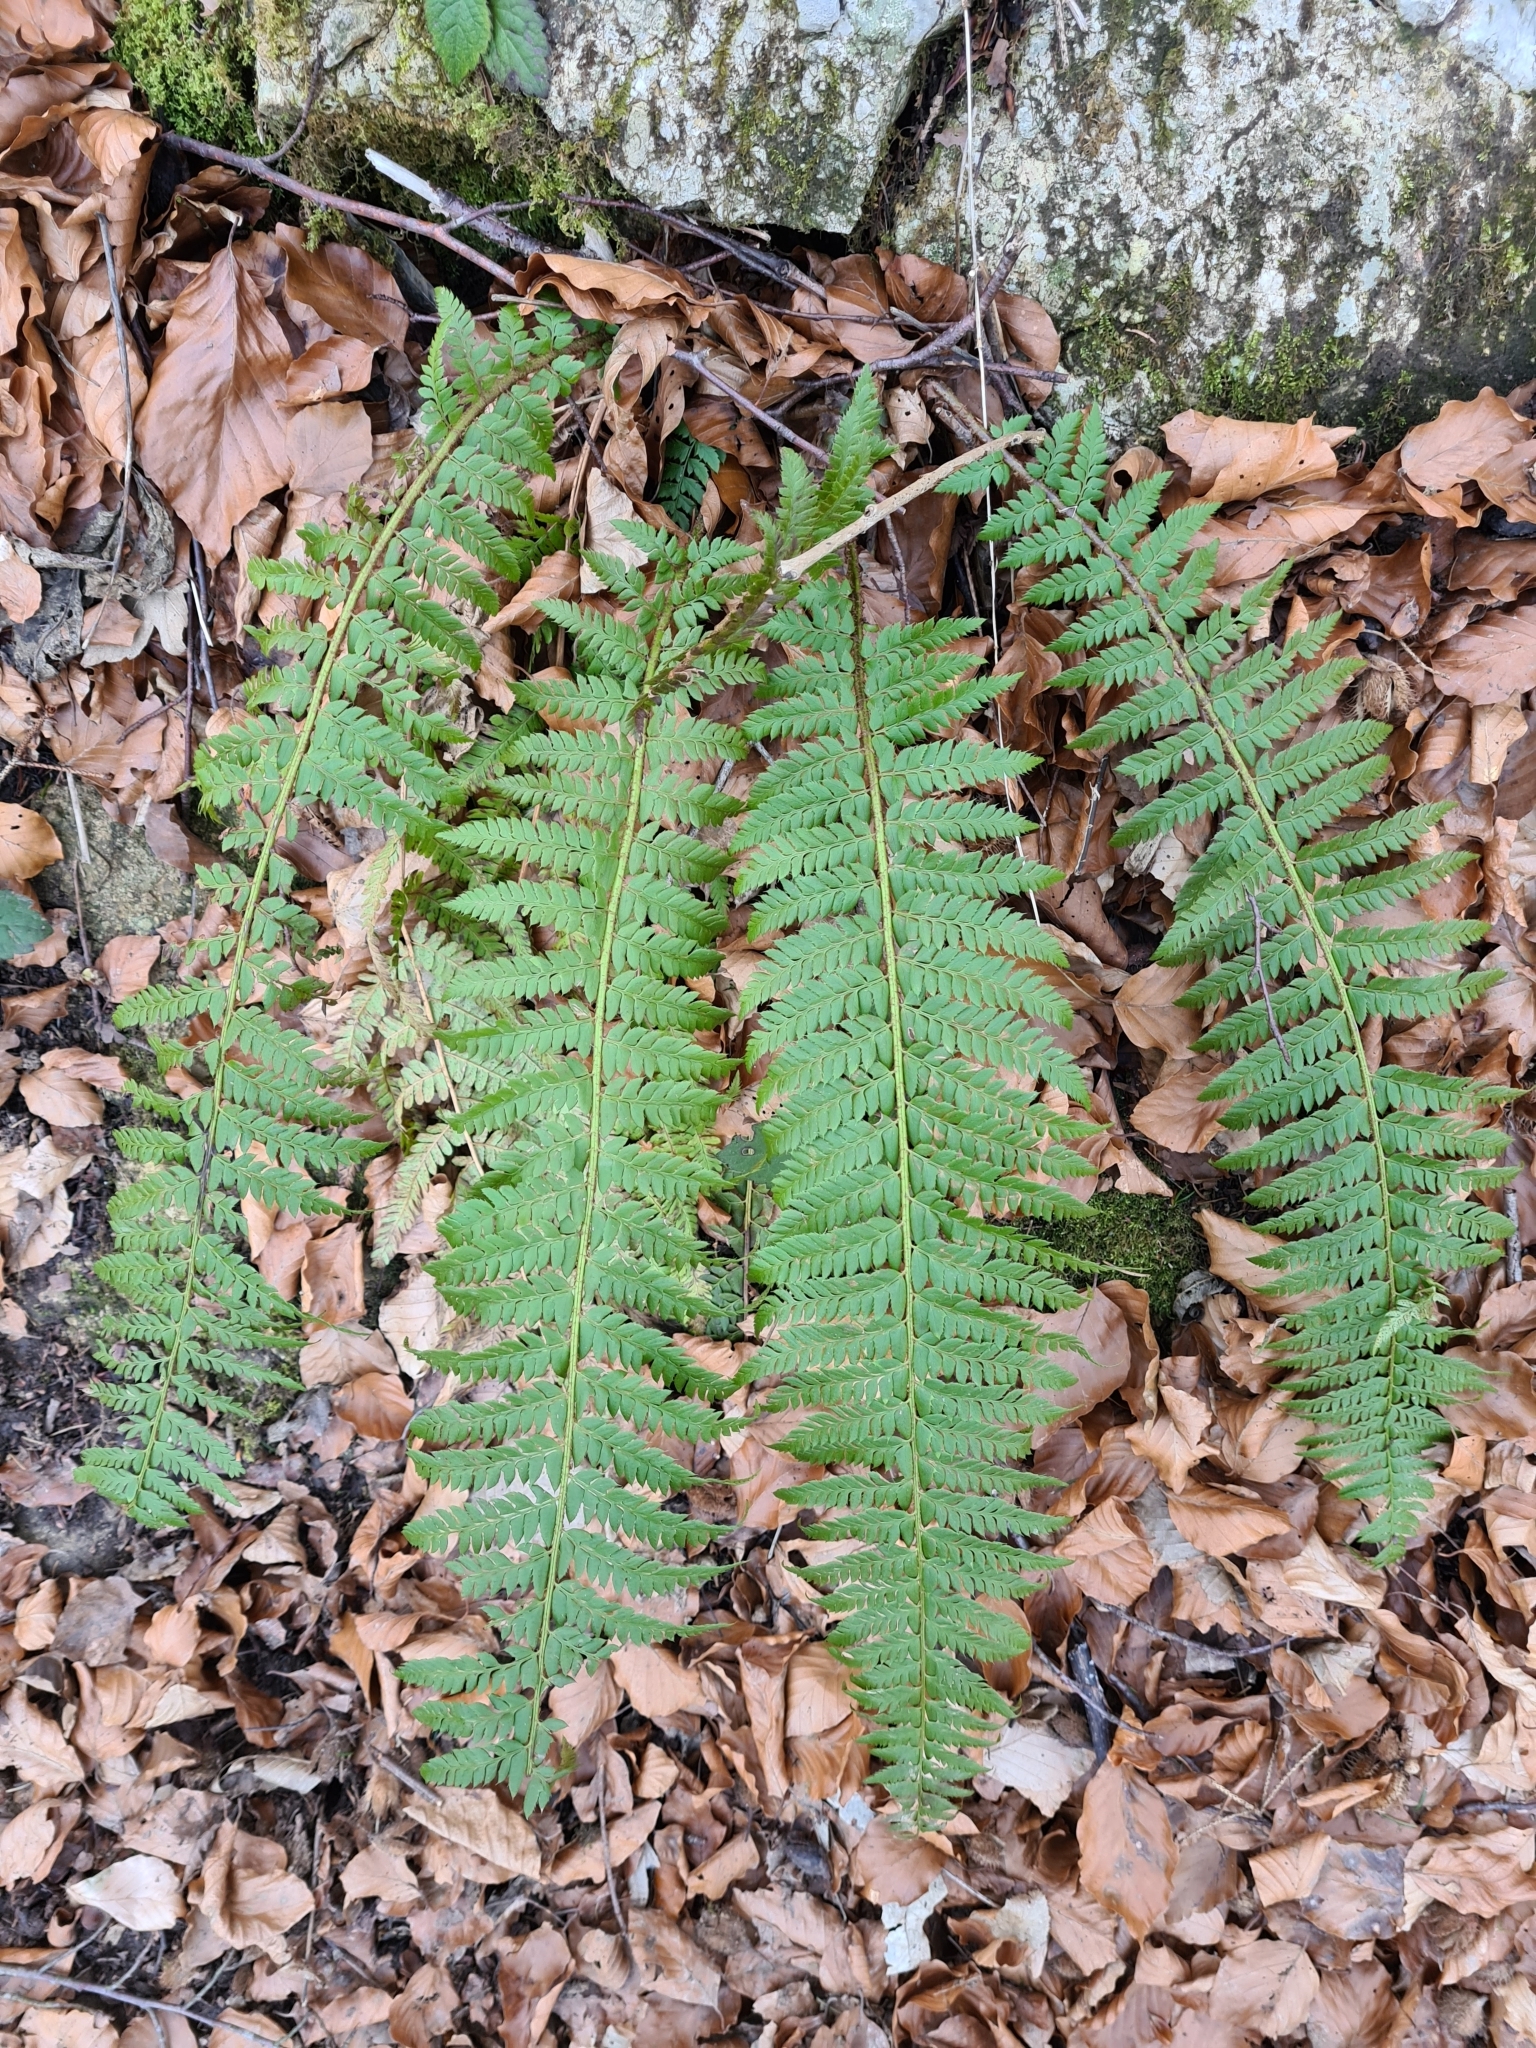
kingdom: Plantae
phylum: Tracheophyta
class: Polypodiopsida
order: Polypodiales
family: Dryopteridaceae
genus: Polystichum
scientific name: Polystichum aculeatum
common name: Hard shield-fern
